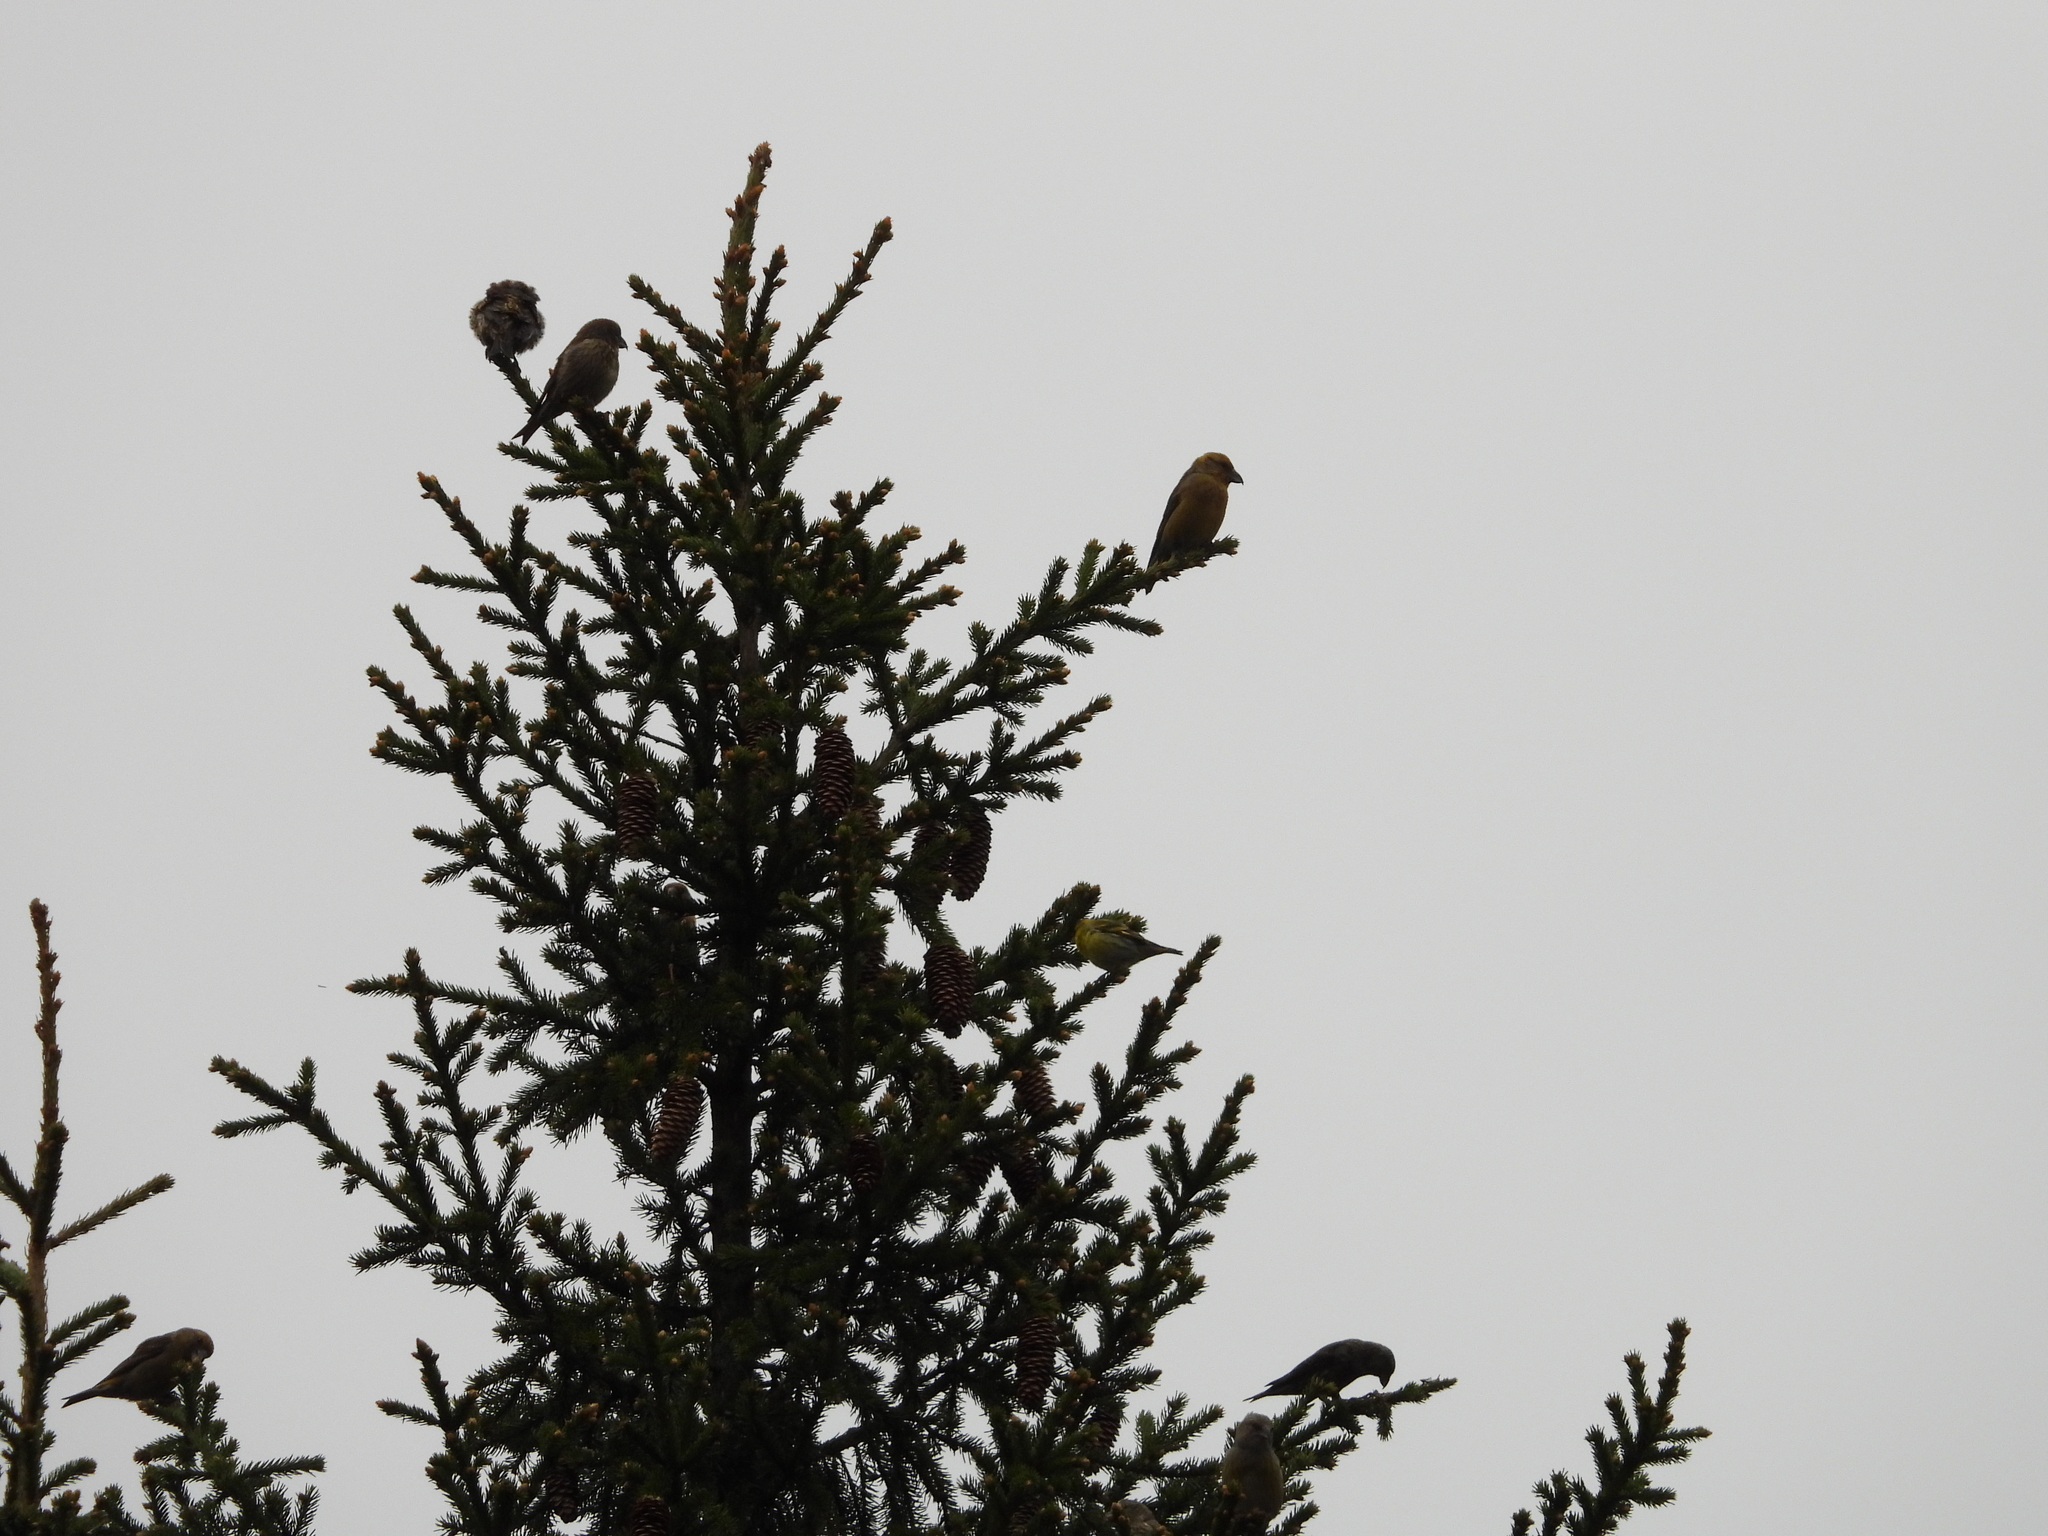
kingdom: Animalia
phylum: Chordata
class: Aves
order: Passeriformes
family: Fringillidae
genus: Loxia
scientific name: Loxia curvirostra
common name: Red crossbill
